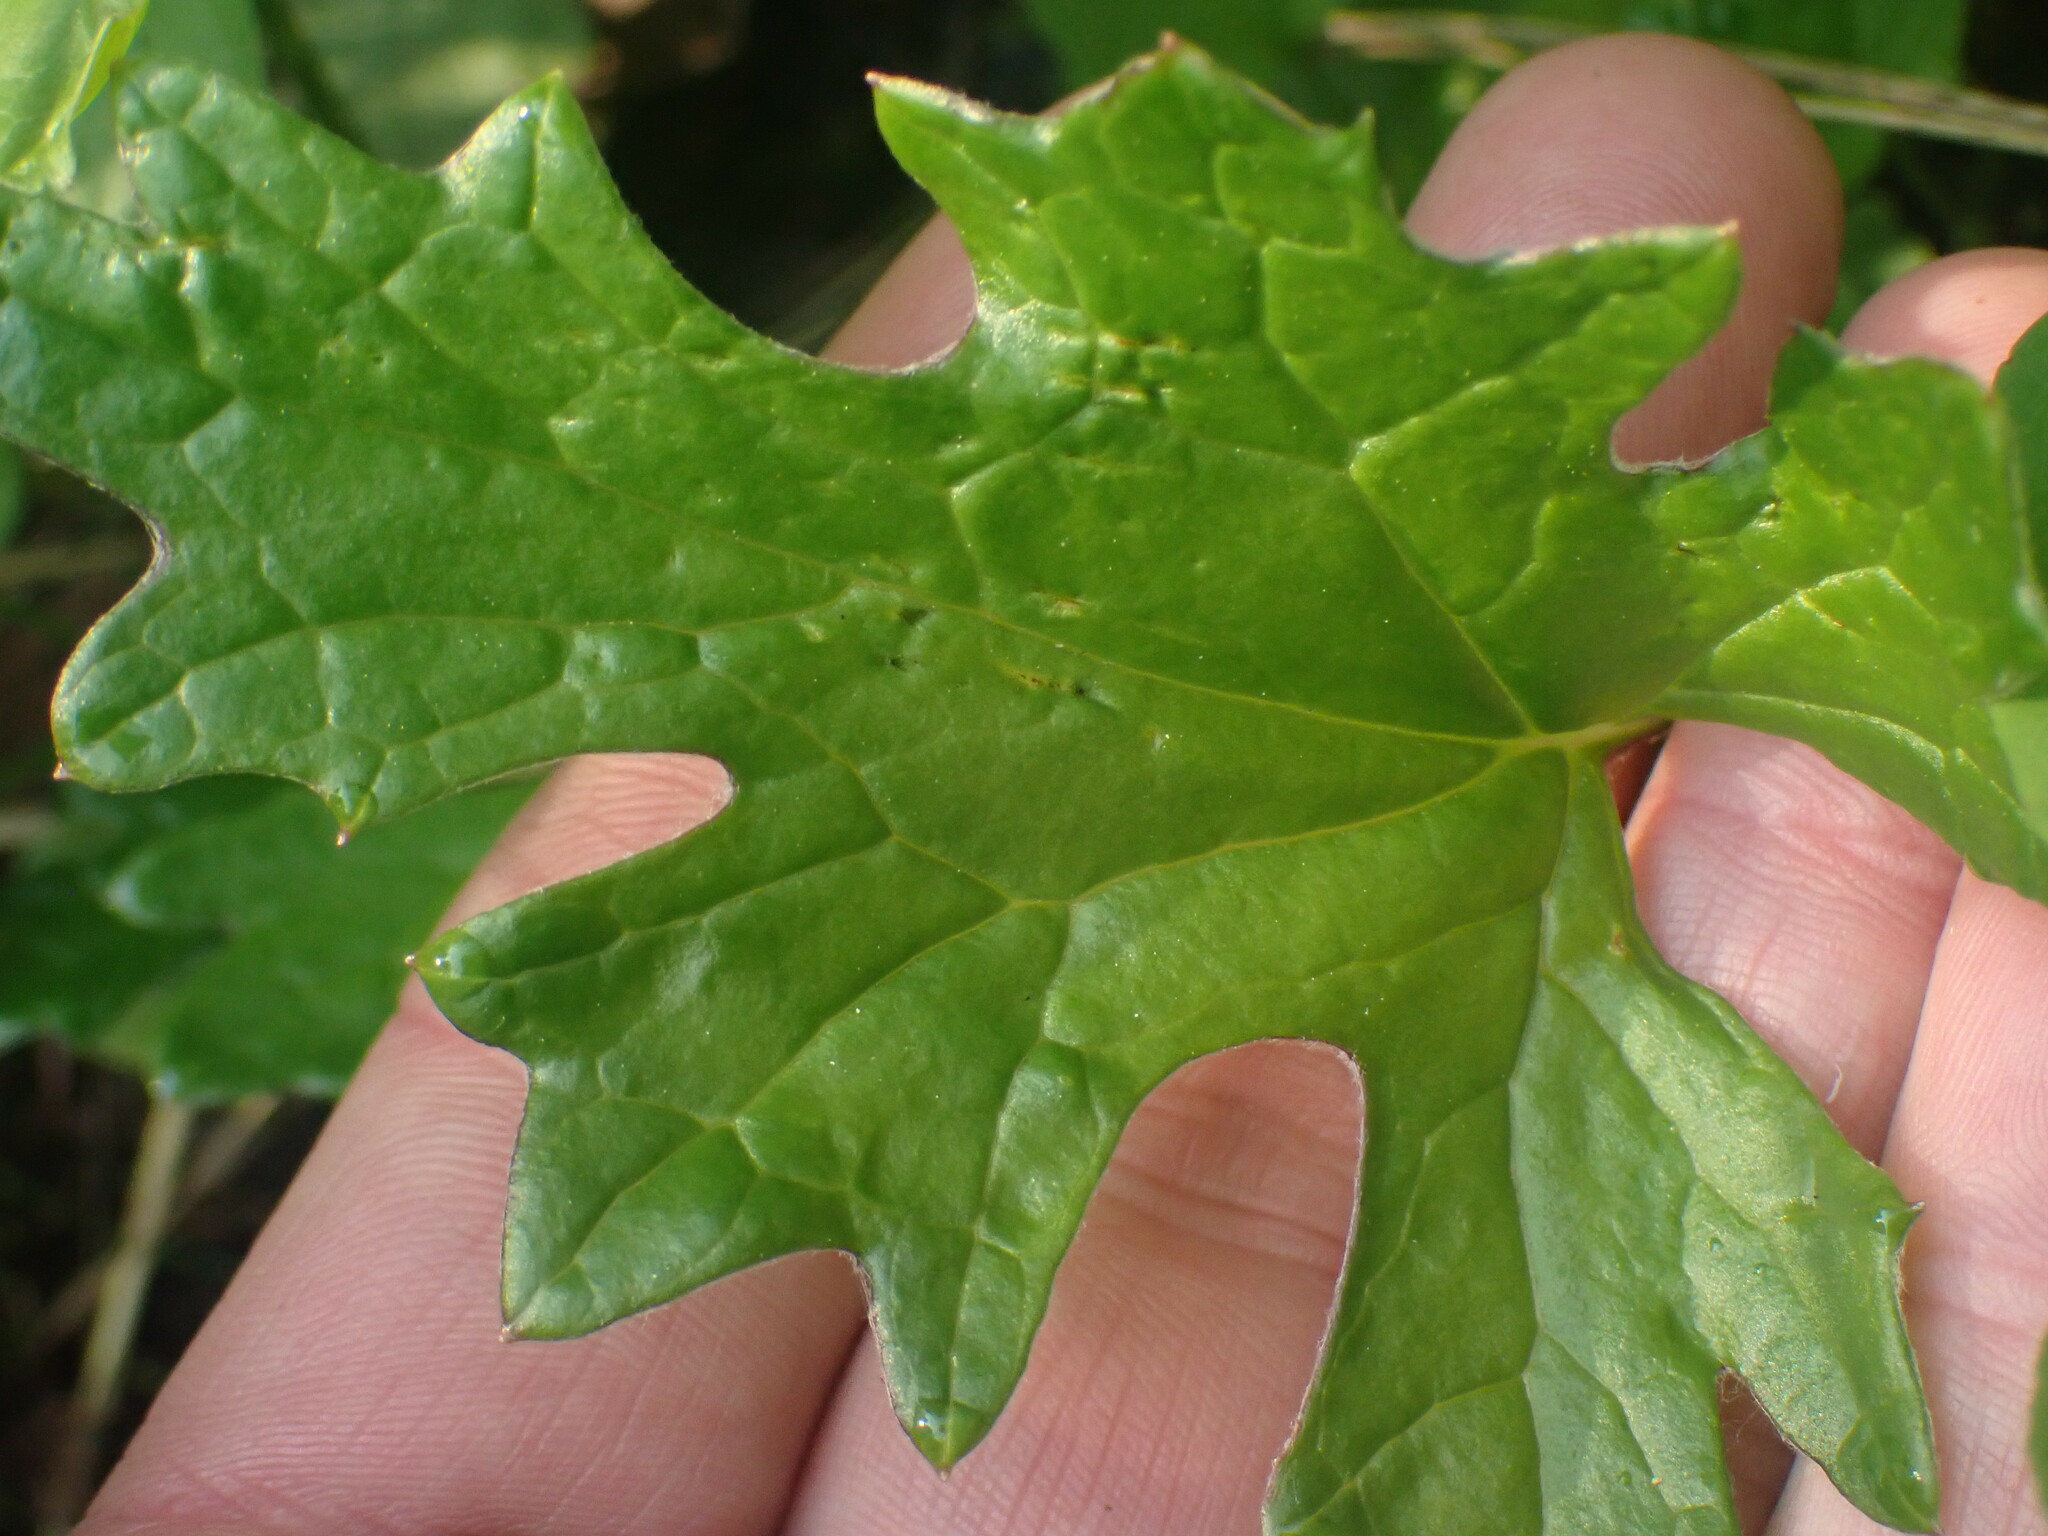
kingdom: Plantae
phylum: Tracheophyta
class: Magnoliopsida
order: Asterales
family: Asteraceae
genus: Petasites
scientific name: Petasites frigidus
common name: Arctic butterbur
